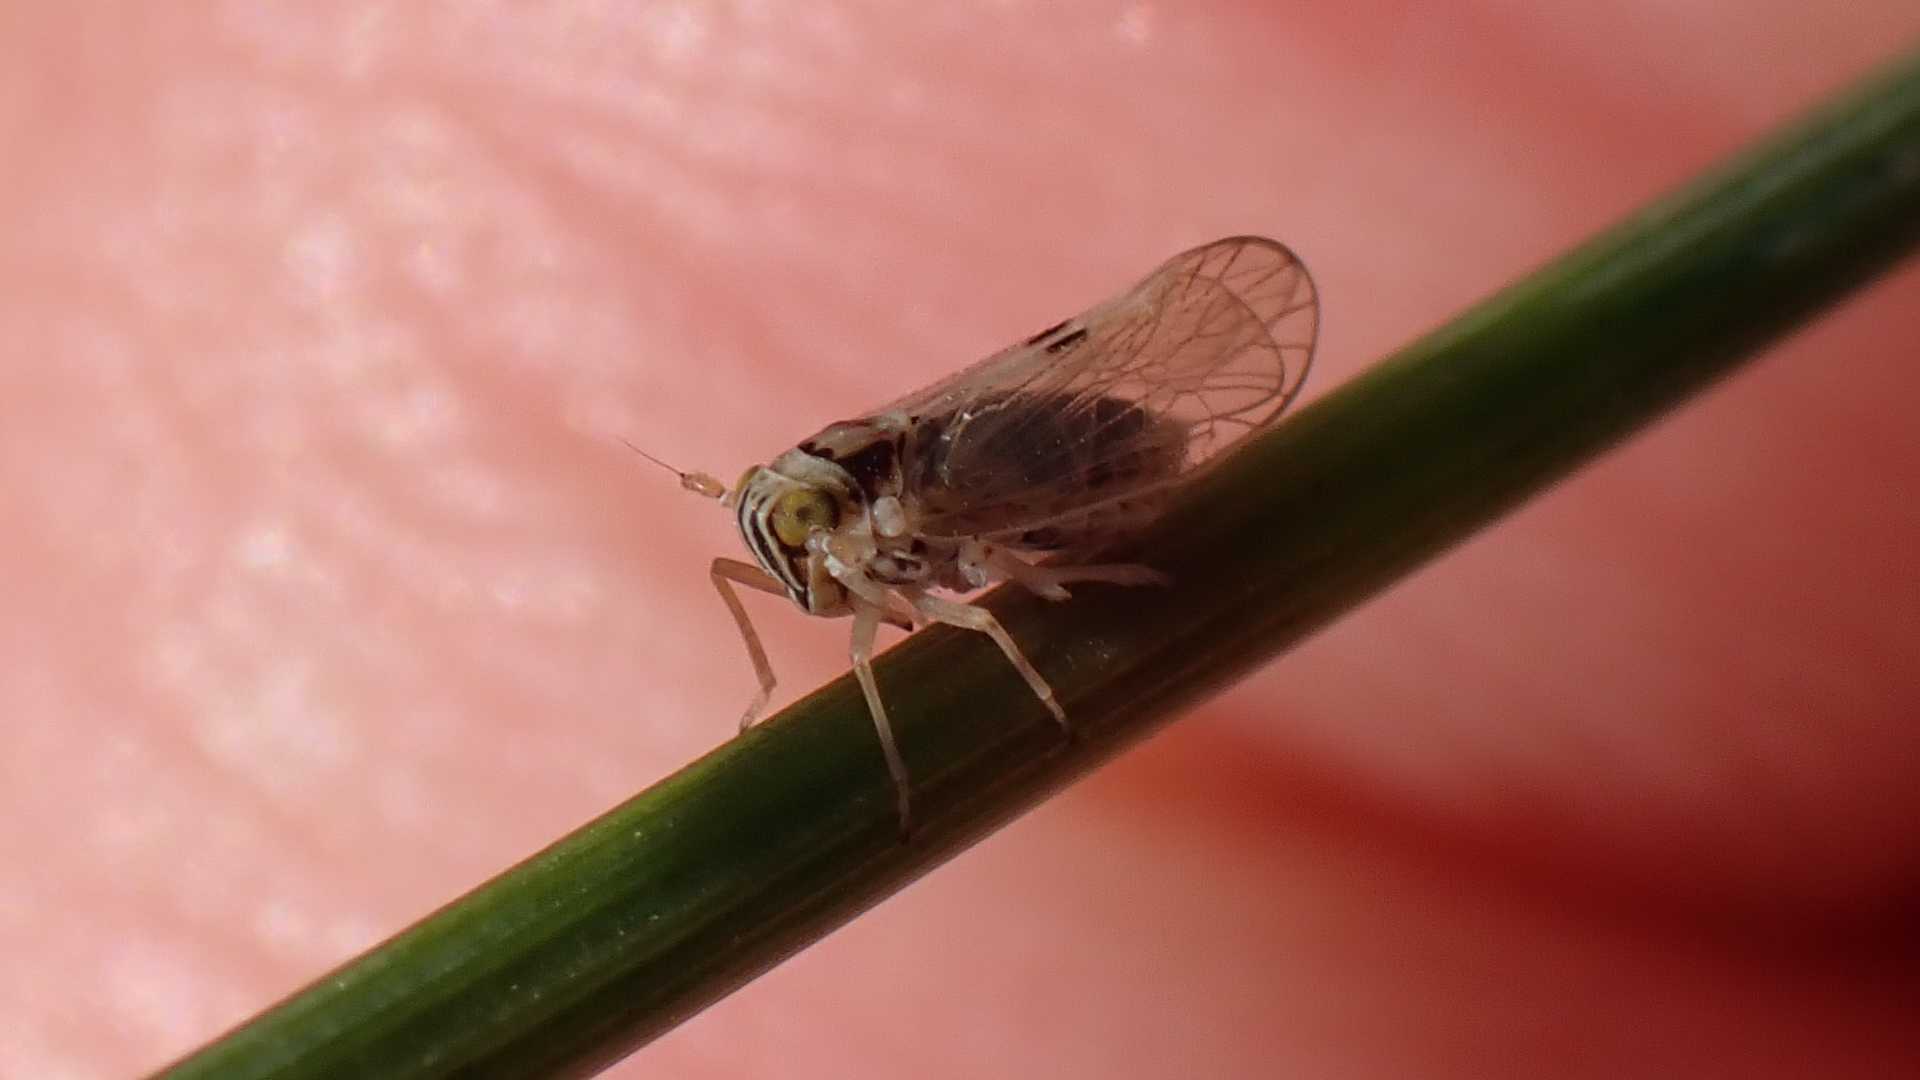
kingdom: Animalia
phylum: Arthropoda
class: Insecta
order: Hemiptera
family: Delphacidae
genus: Laodelphax
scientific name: Laodelphax striatellus
